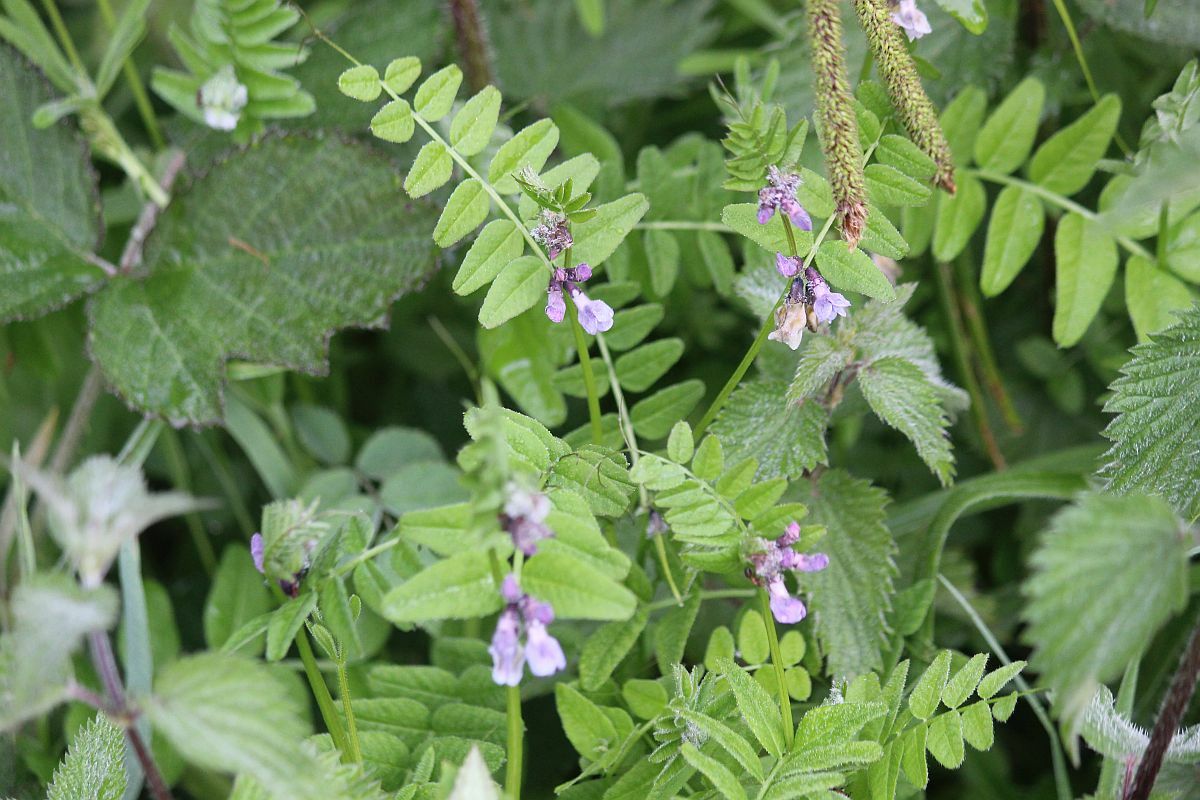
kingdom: Plantae
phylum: Tracheophyta
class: Magnoliopsida
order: Fabales
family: Fabaceae
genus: Vicia
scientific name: Vicia sepium
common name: Bush vetch
